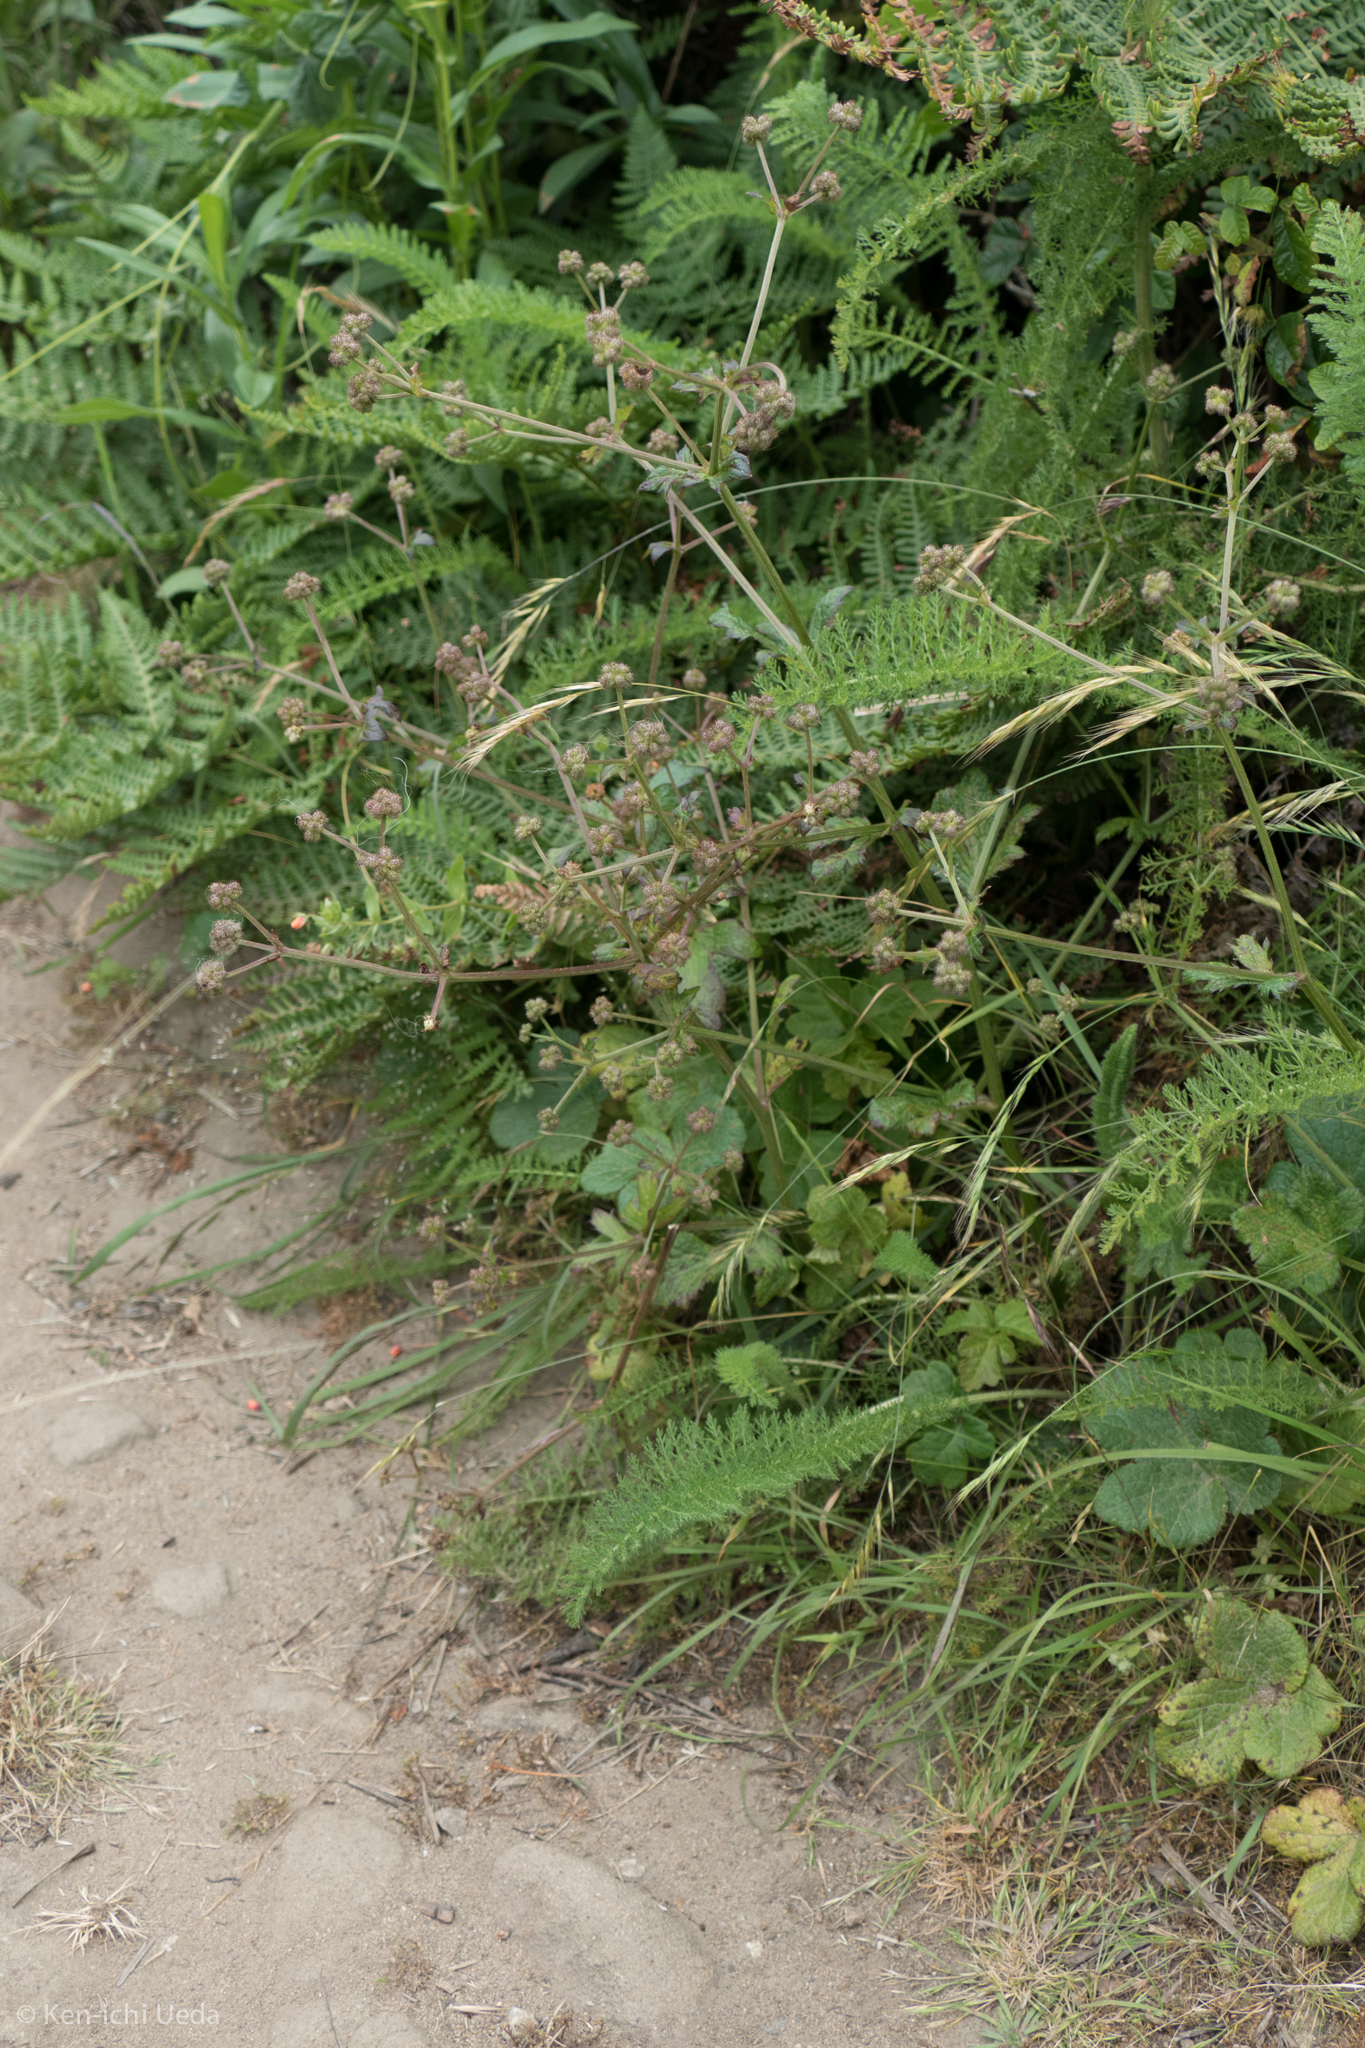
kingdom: Plantae
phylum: Tracheophyta
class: Magnoliopsida
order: Apiales
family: Apiaceae
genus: Sanicula
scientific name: Sanicula crassicaulis
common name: Western snakeroot
